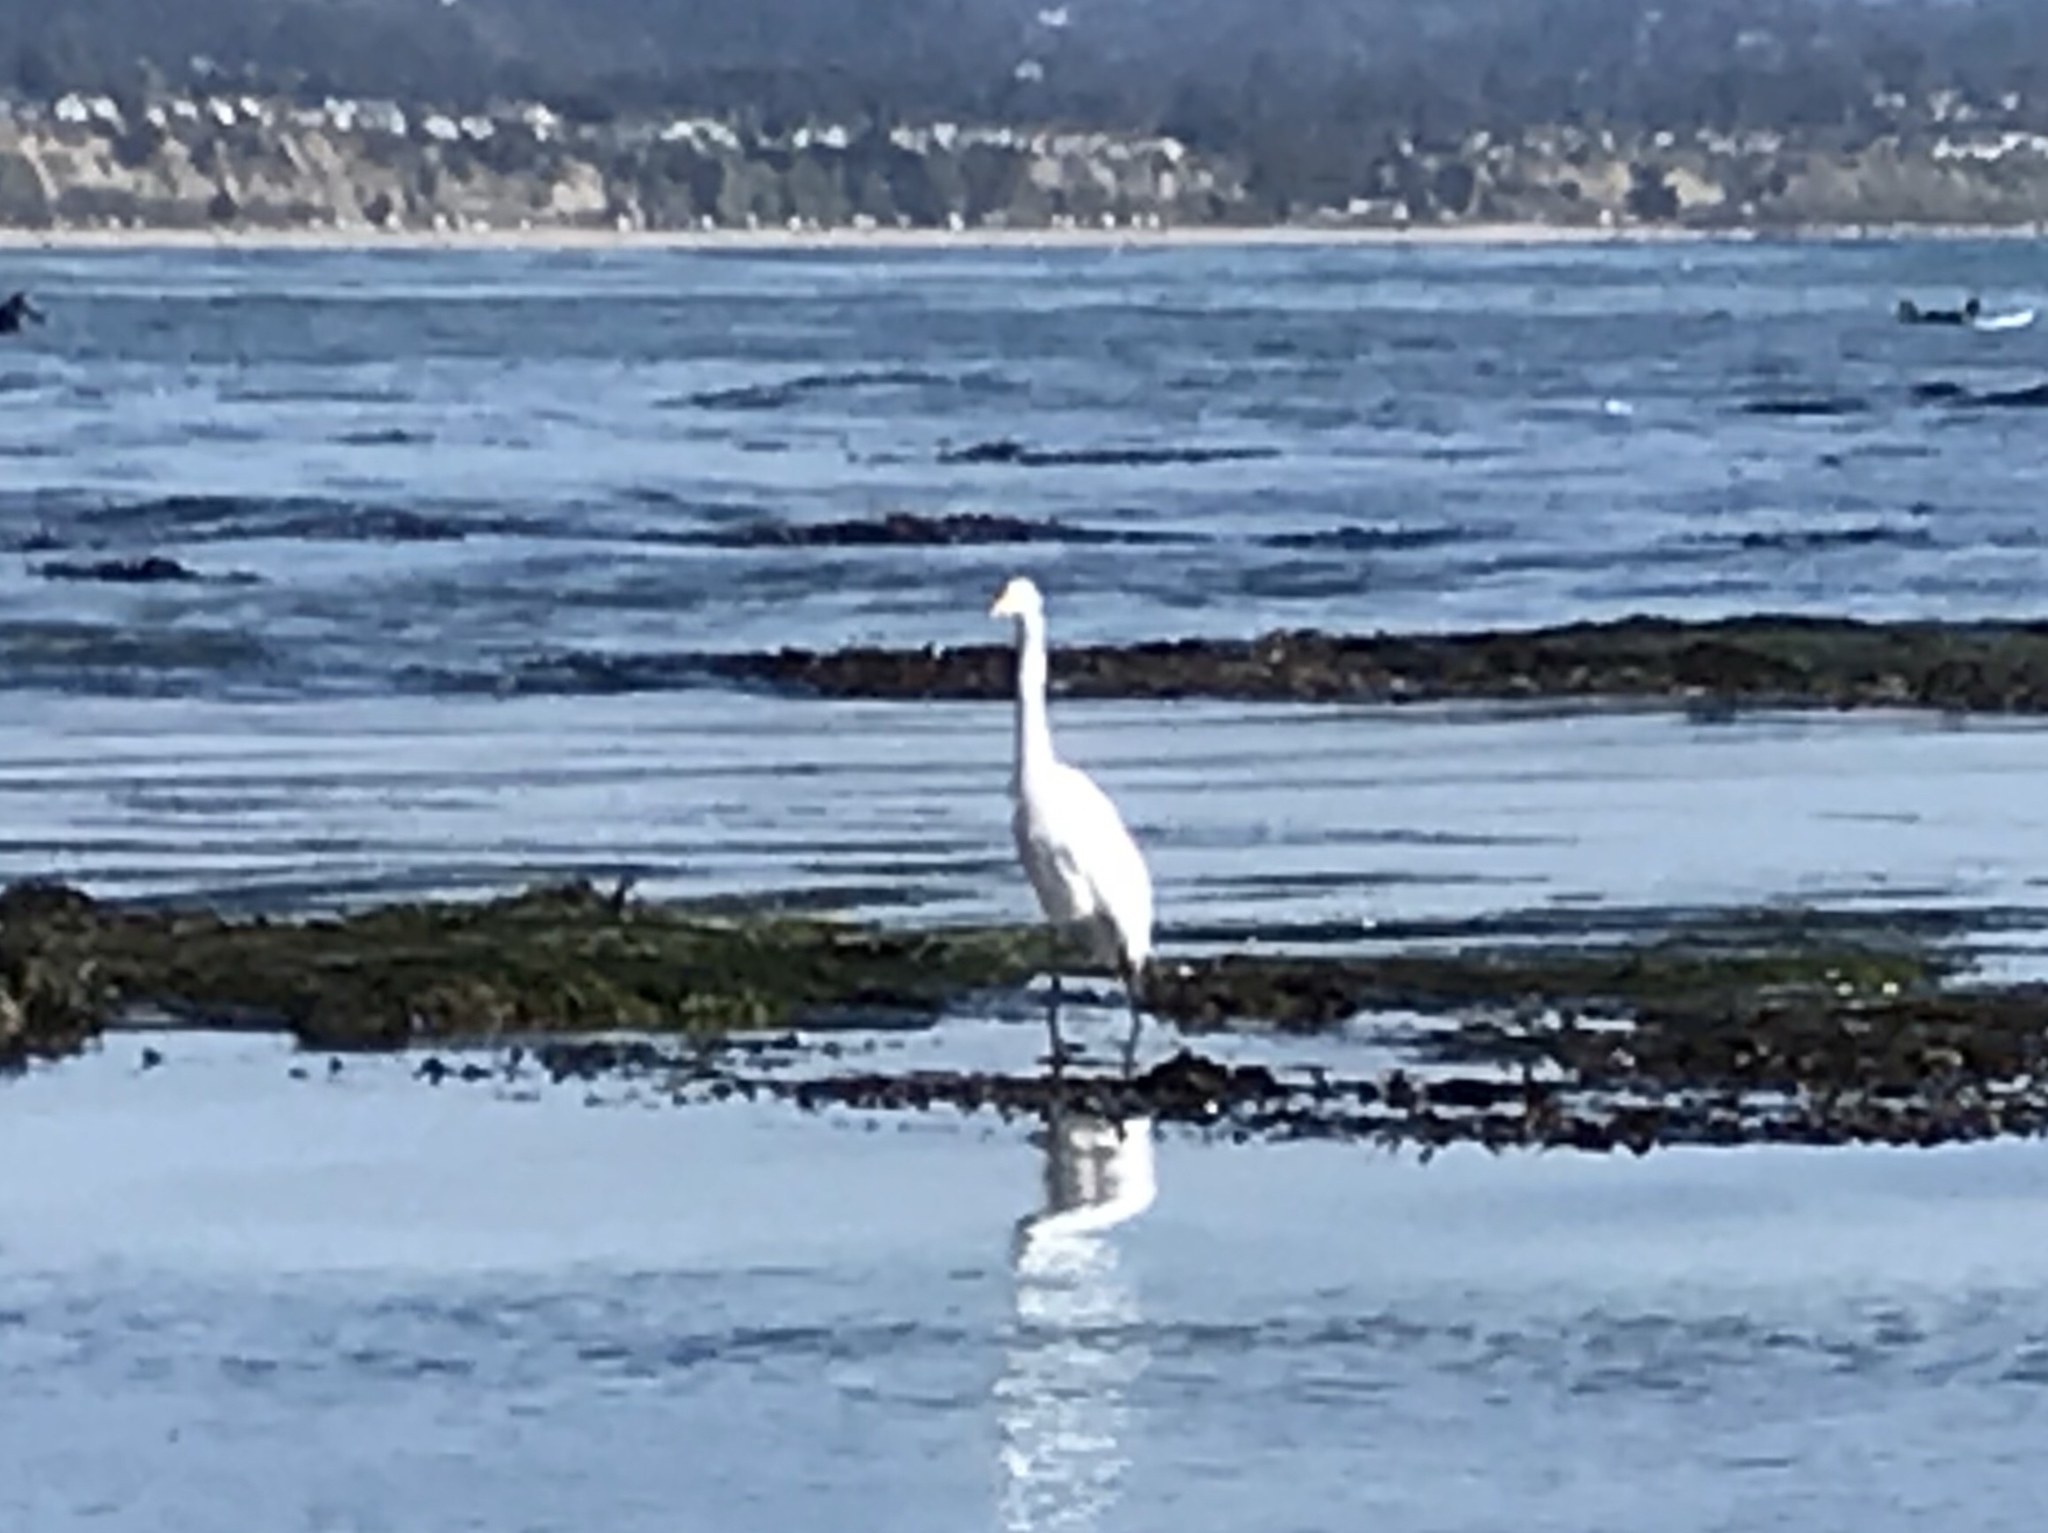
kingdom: Animalia
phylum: Chordata
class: Aves
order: Pelecaniformes
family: Ardeidae
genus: Ardea
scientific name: Ardea alba
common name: Great egret
